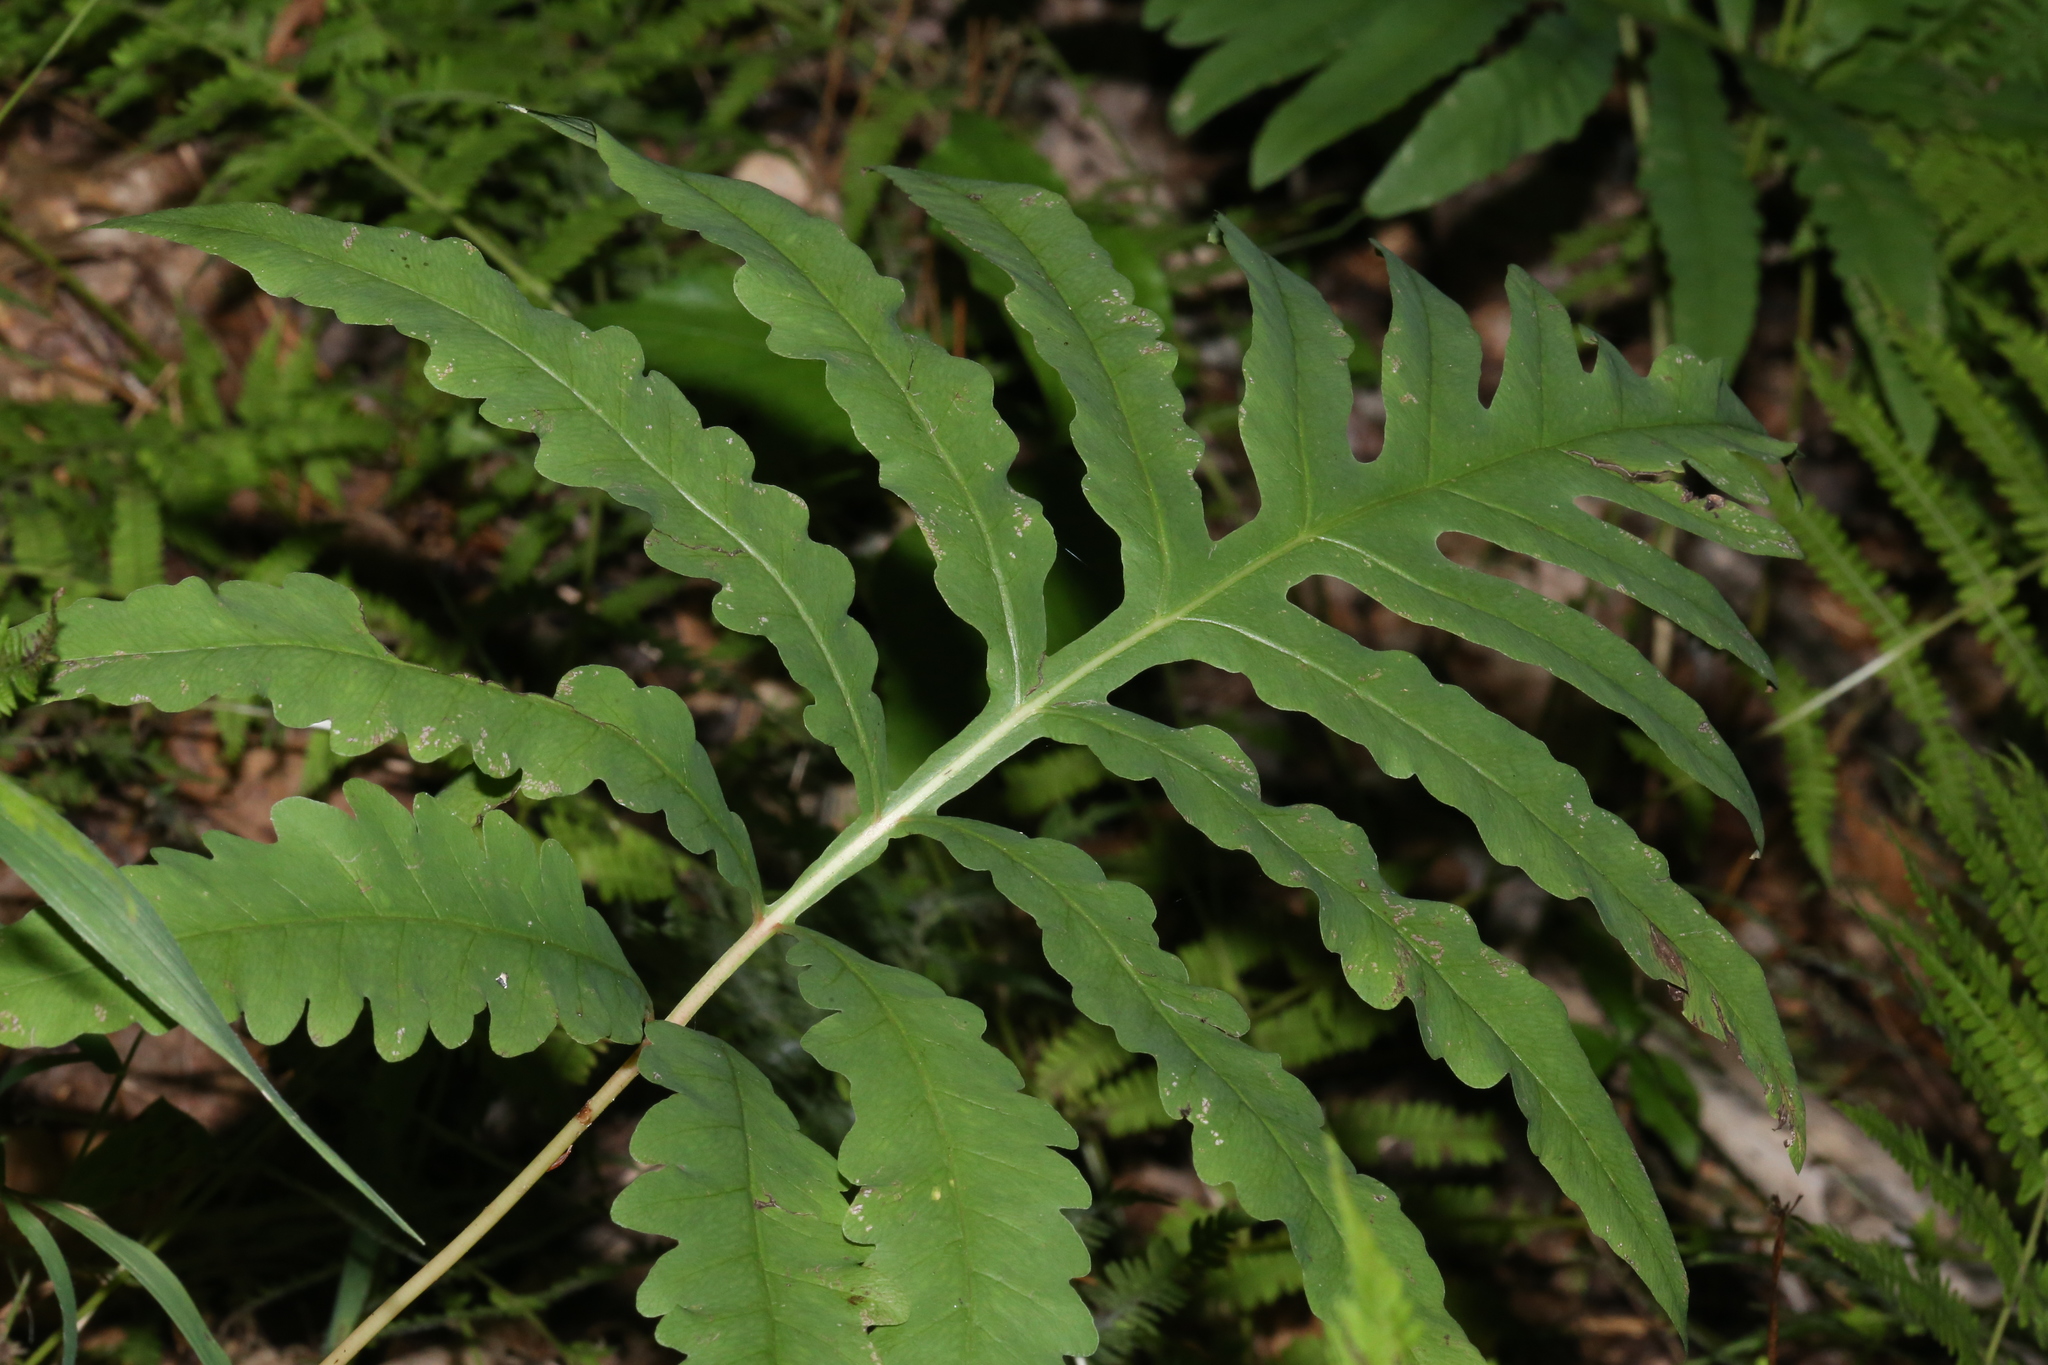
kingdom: Plantae
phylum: Tracheophyta
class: Polypodiopsida
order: Polypodiales
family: Onocleaceae
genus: Onoclea
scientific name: Onoclea sensibilis
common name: Sensitive fern
